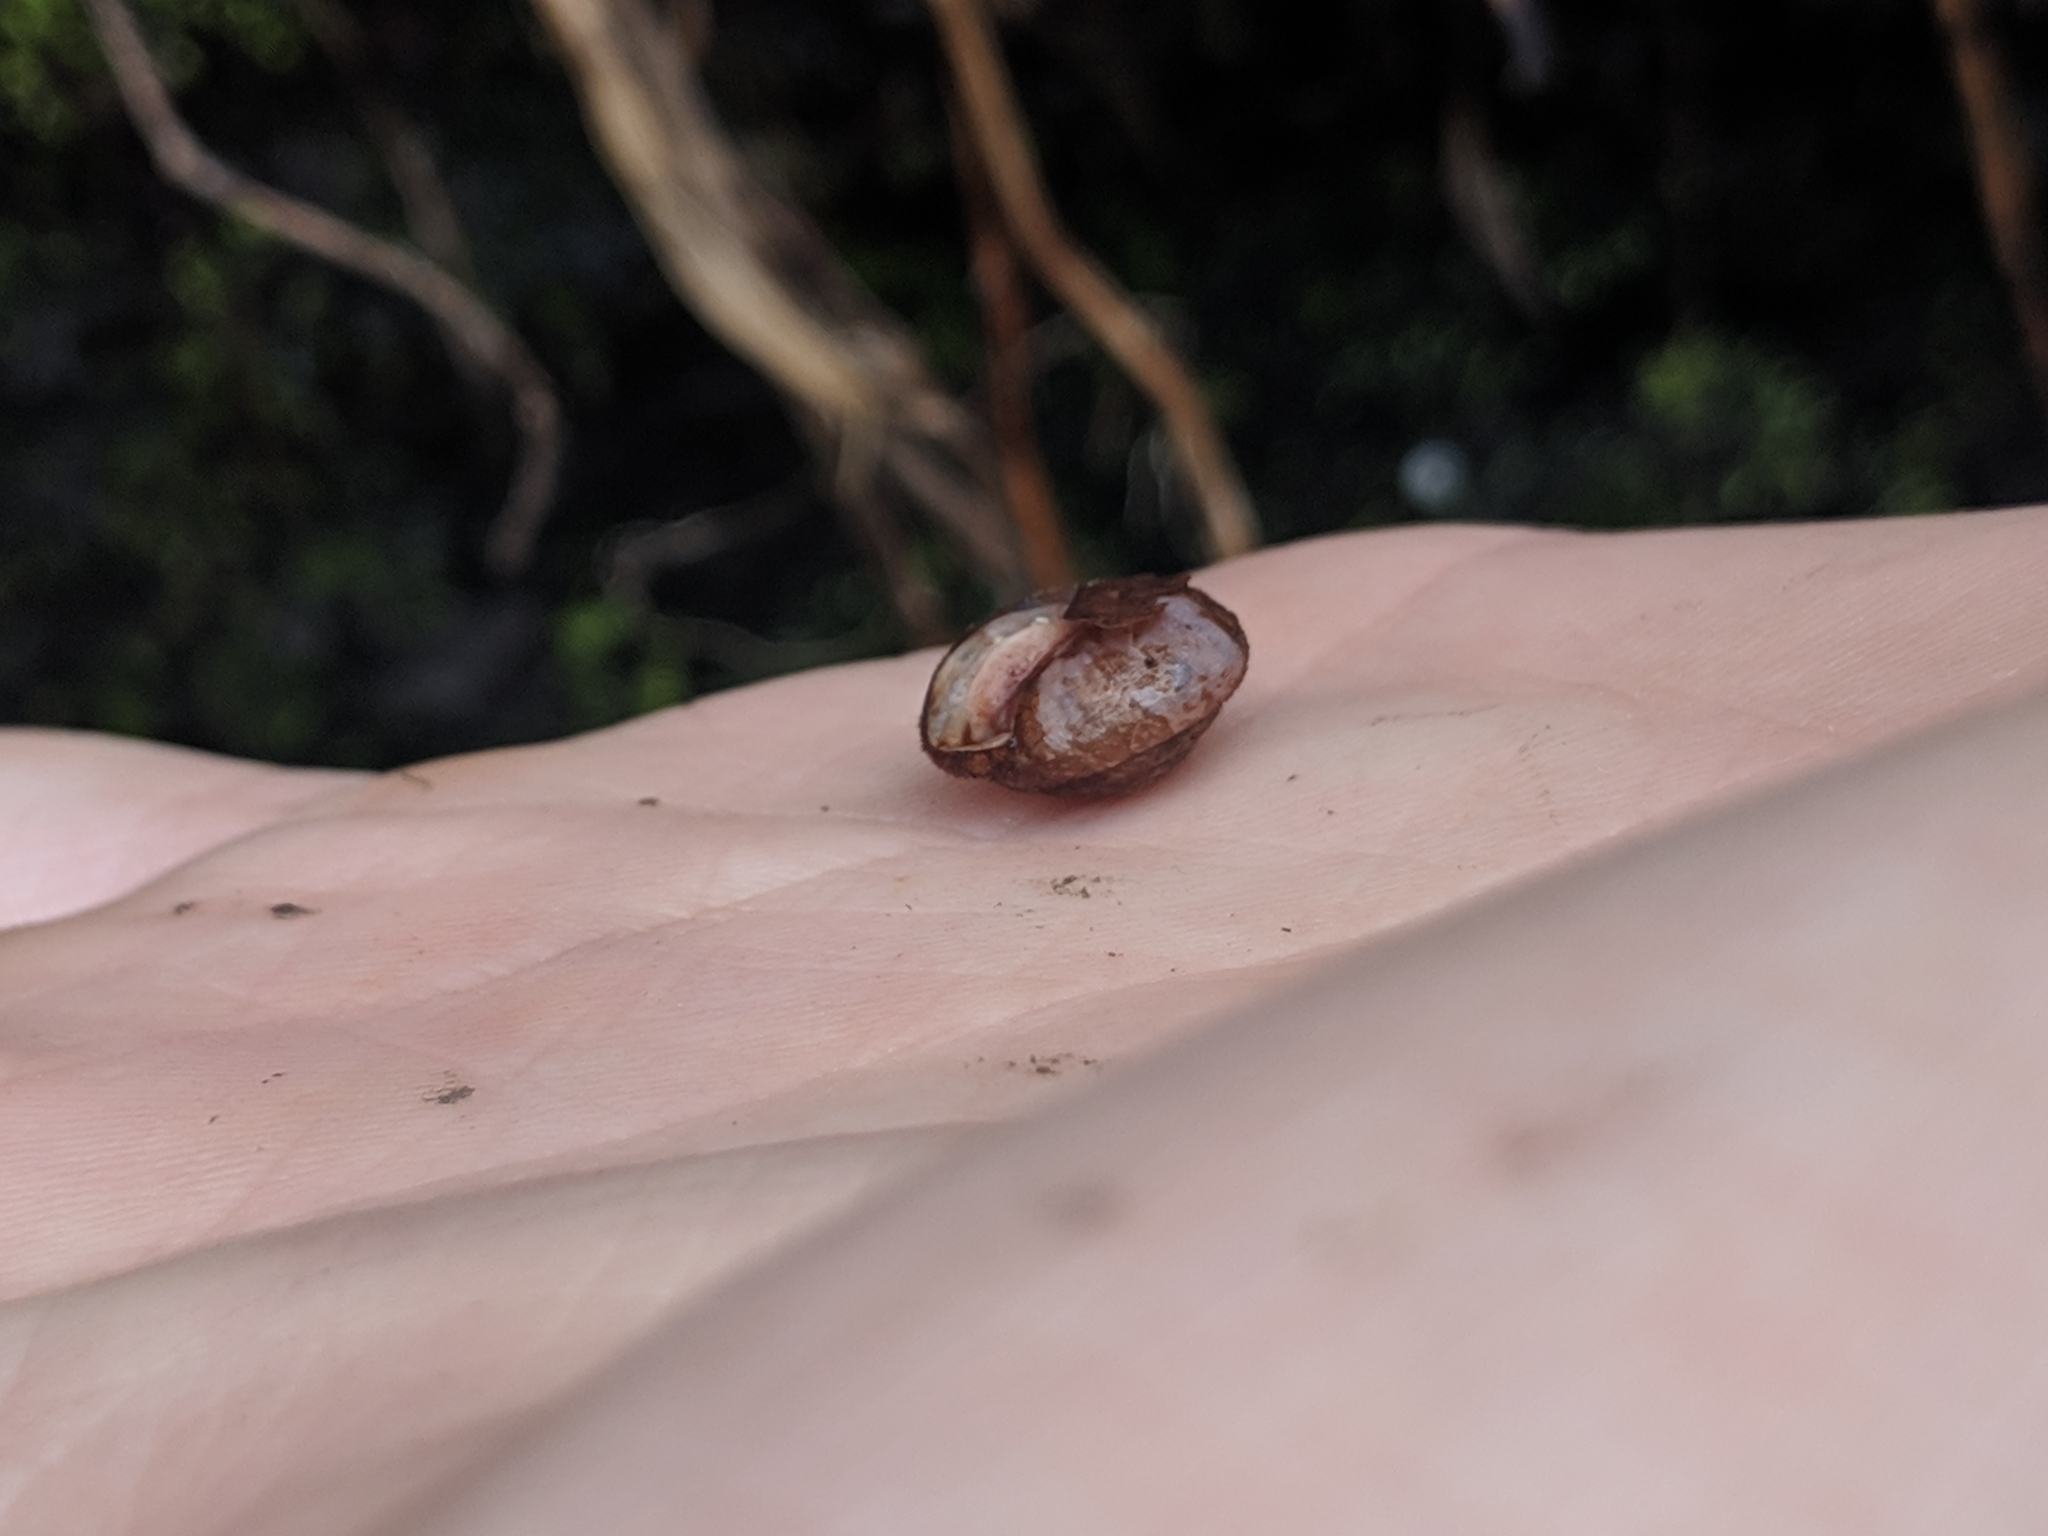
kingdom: Animalia
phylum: Mollusca
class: Gastropoda
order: Stylommatophora
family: Polygyridae
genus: Stenotrema
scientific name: Stenotrema stenotrema
